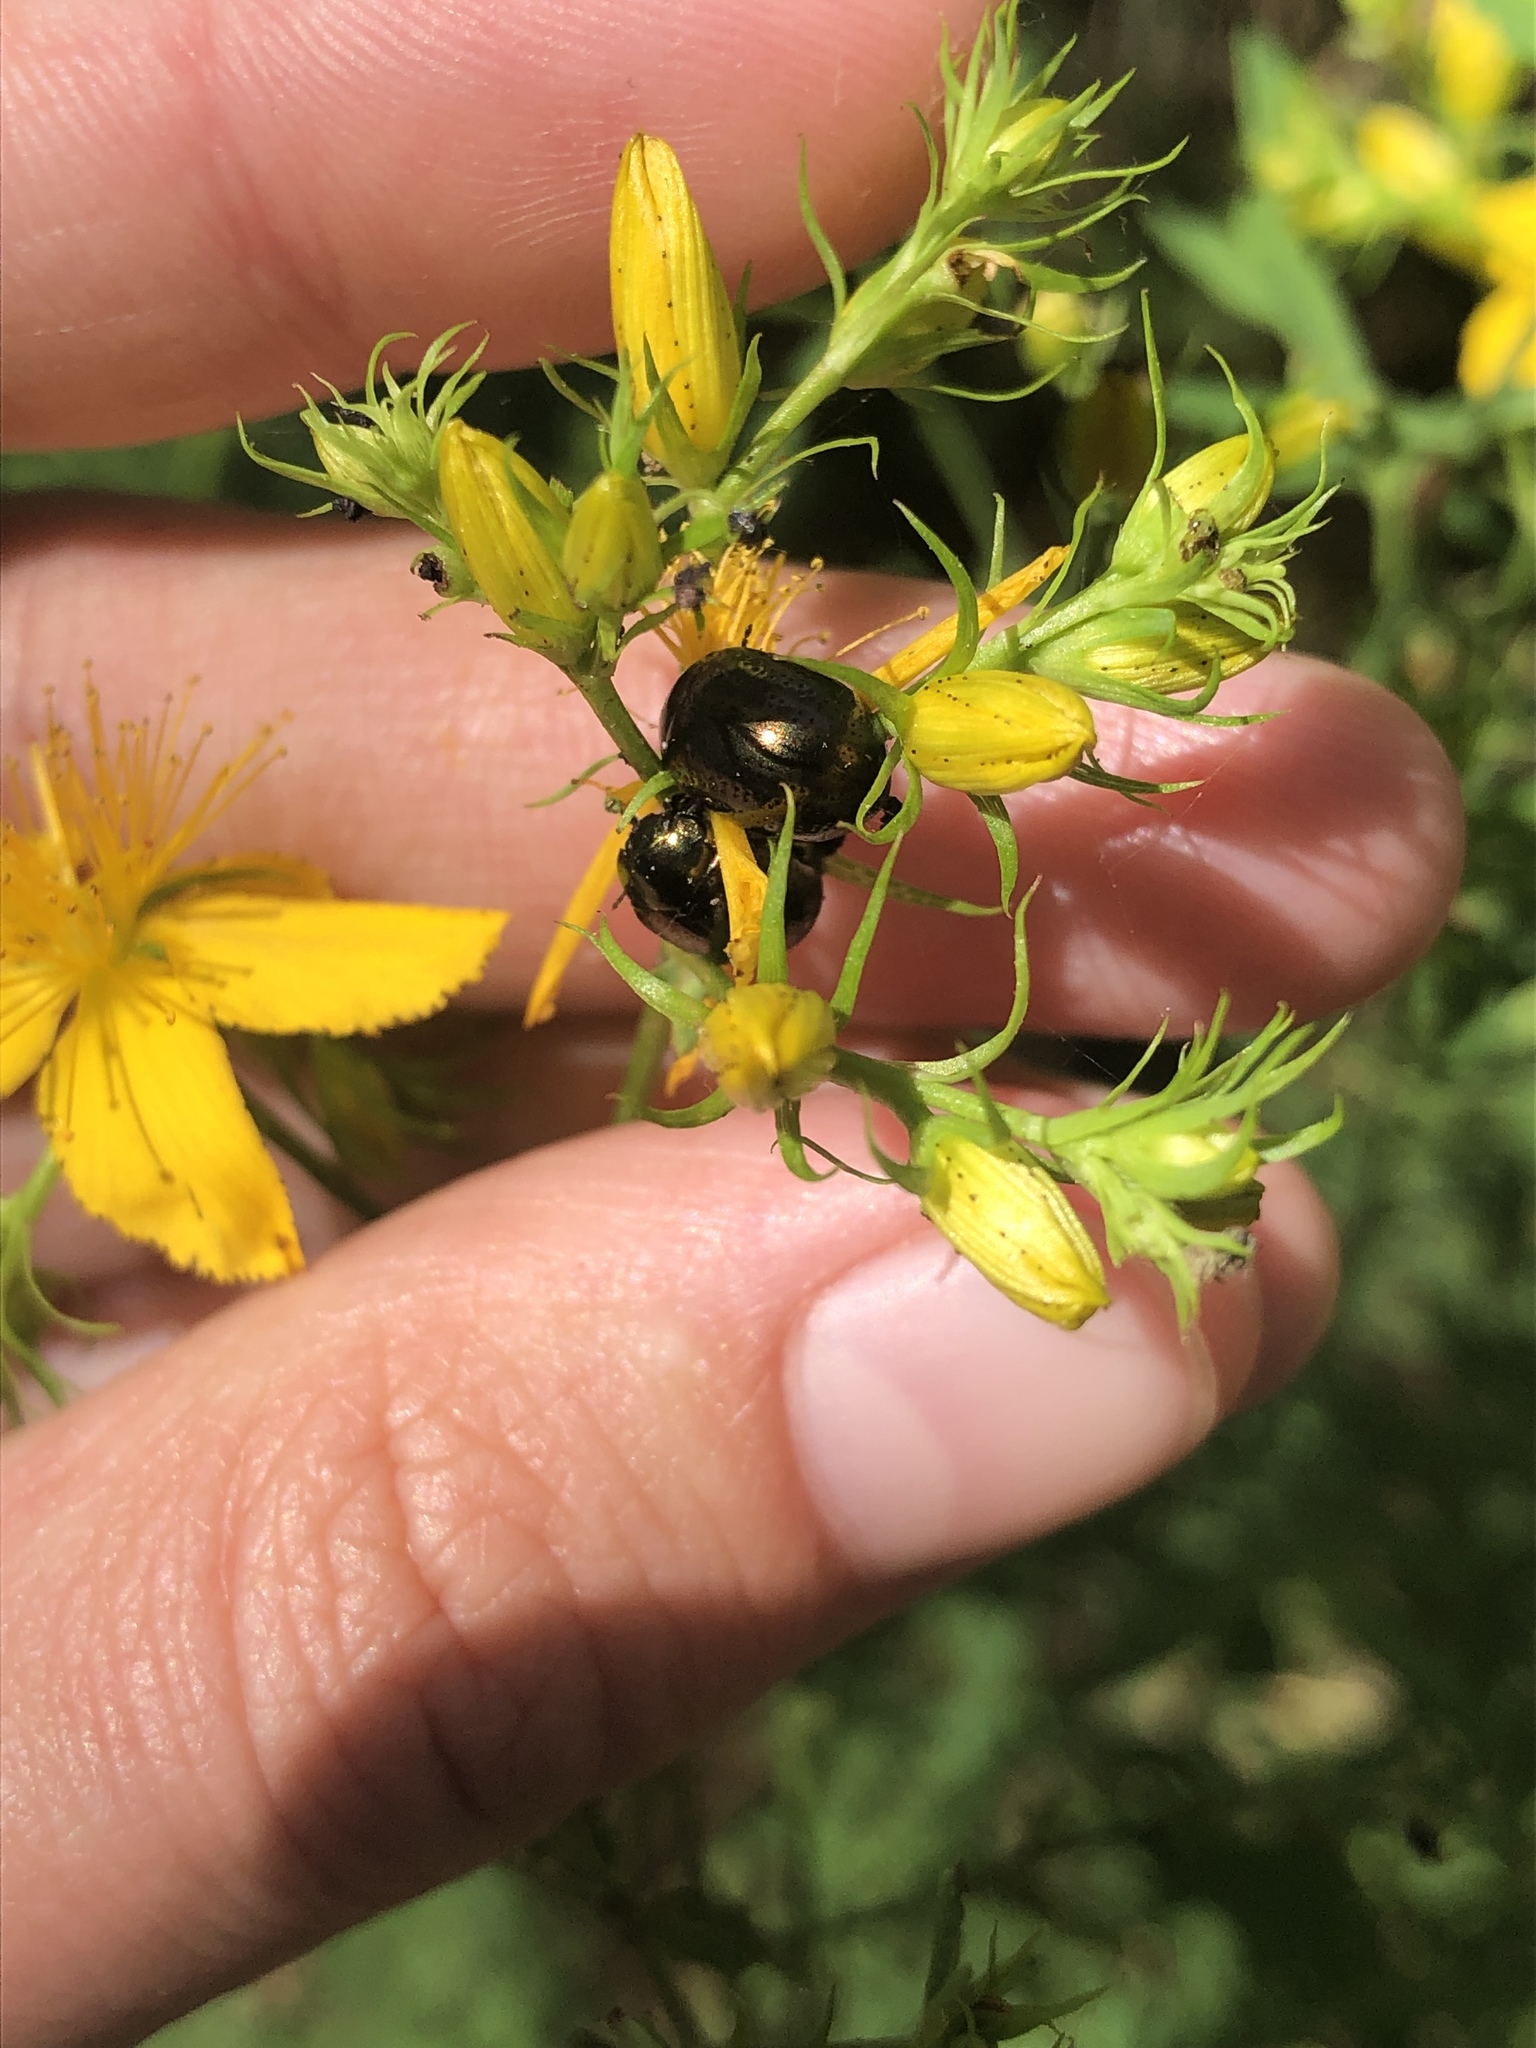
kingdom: Animalia
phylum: Arthropoda
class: Insecta
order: Coleoptera
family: Chrysomelidae
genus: Chrysolina
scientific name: Chrysolina hyperici
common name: St. johnswort beetle
